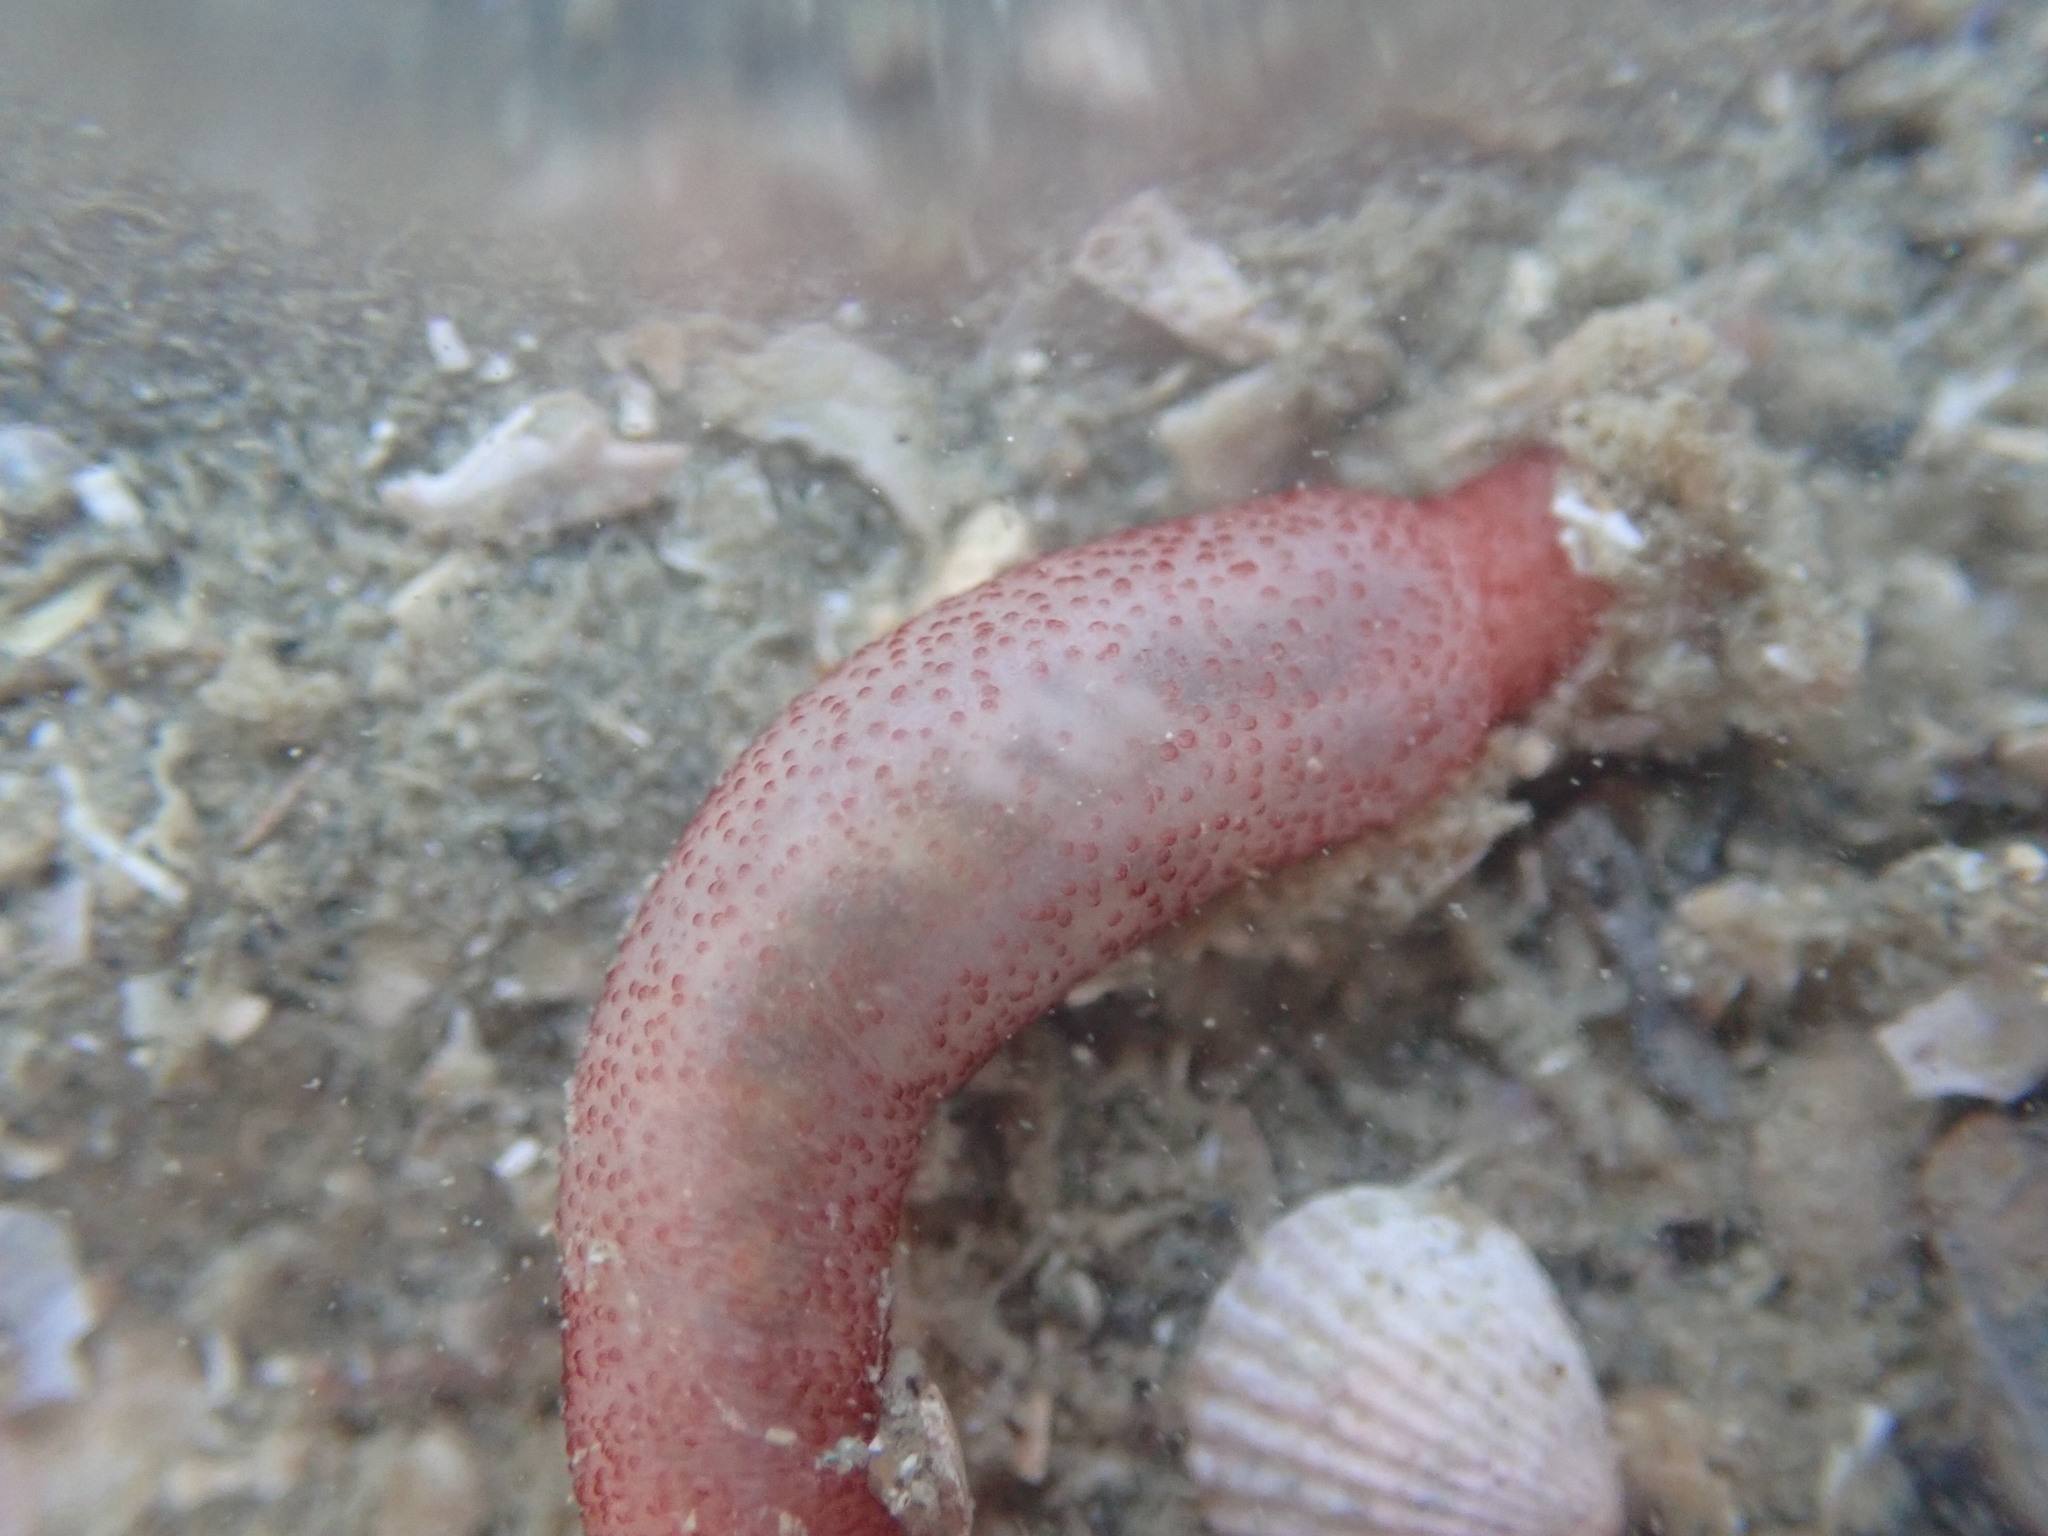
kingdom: Animalia
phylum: Echinodermata
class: Holothuroidea
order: Apodida
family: Chiridotidae
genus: Taeniogyrus
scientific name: Taeniogyrus dunedinensis
